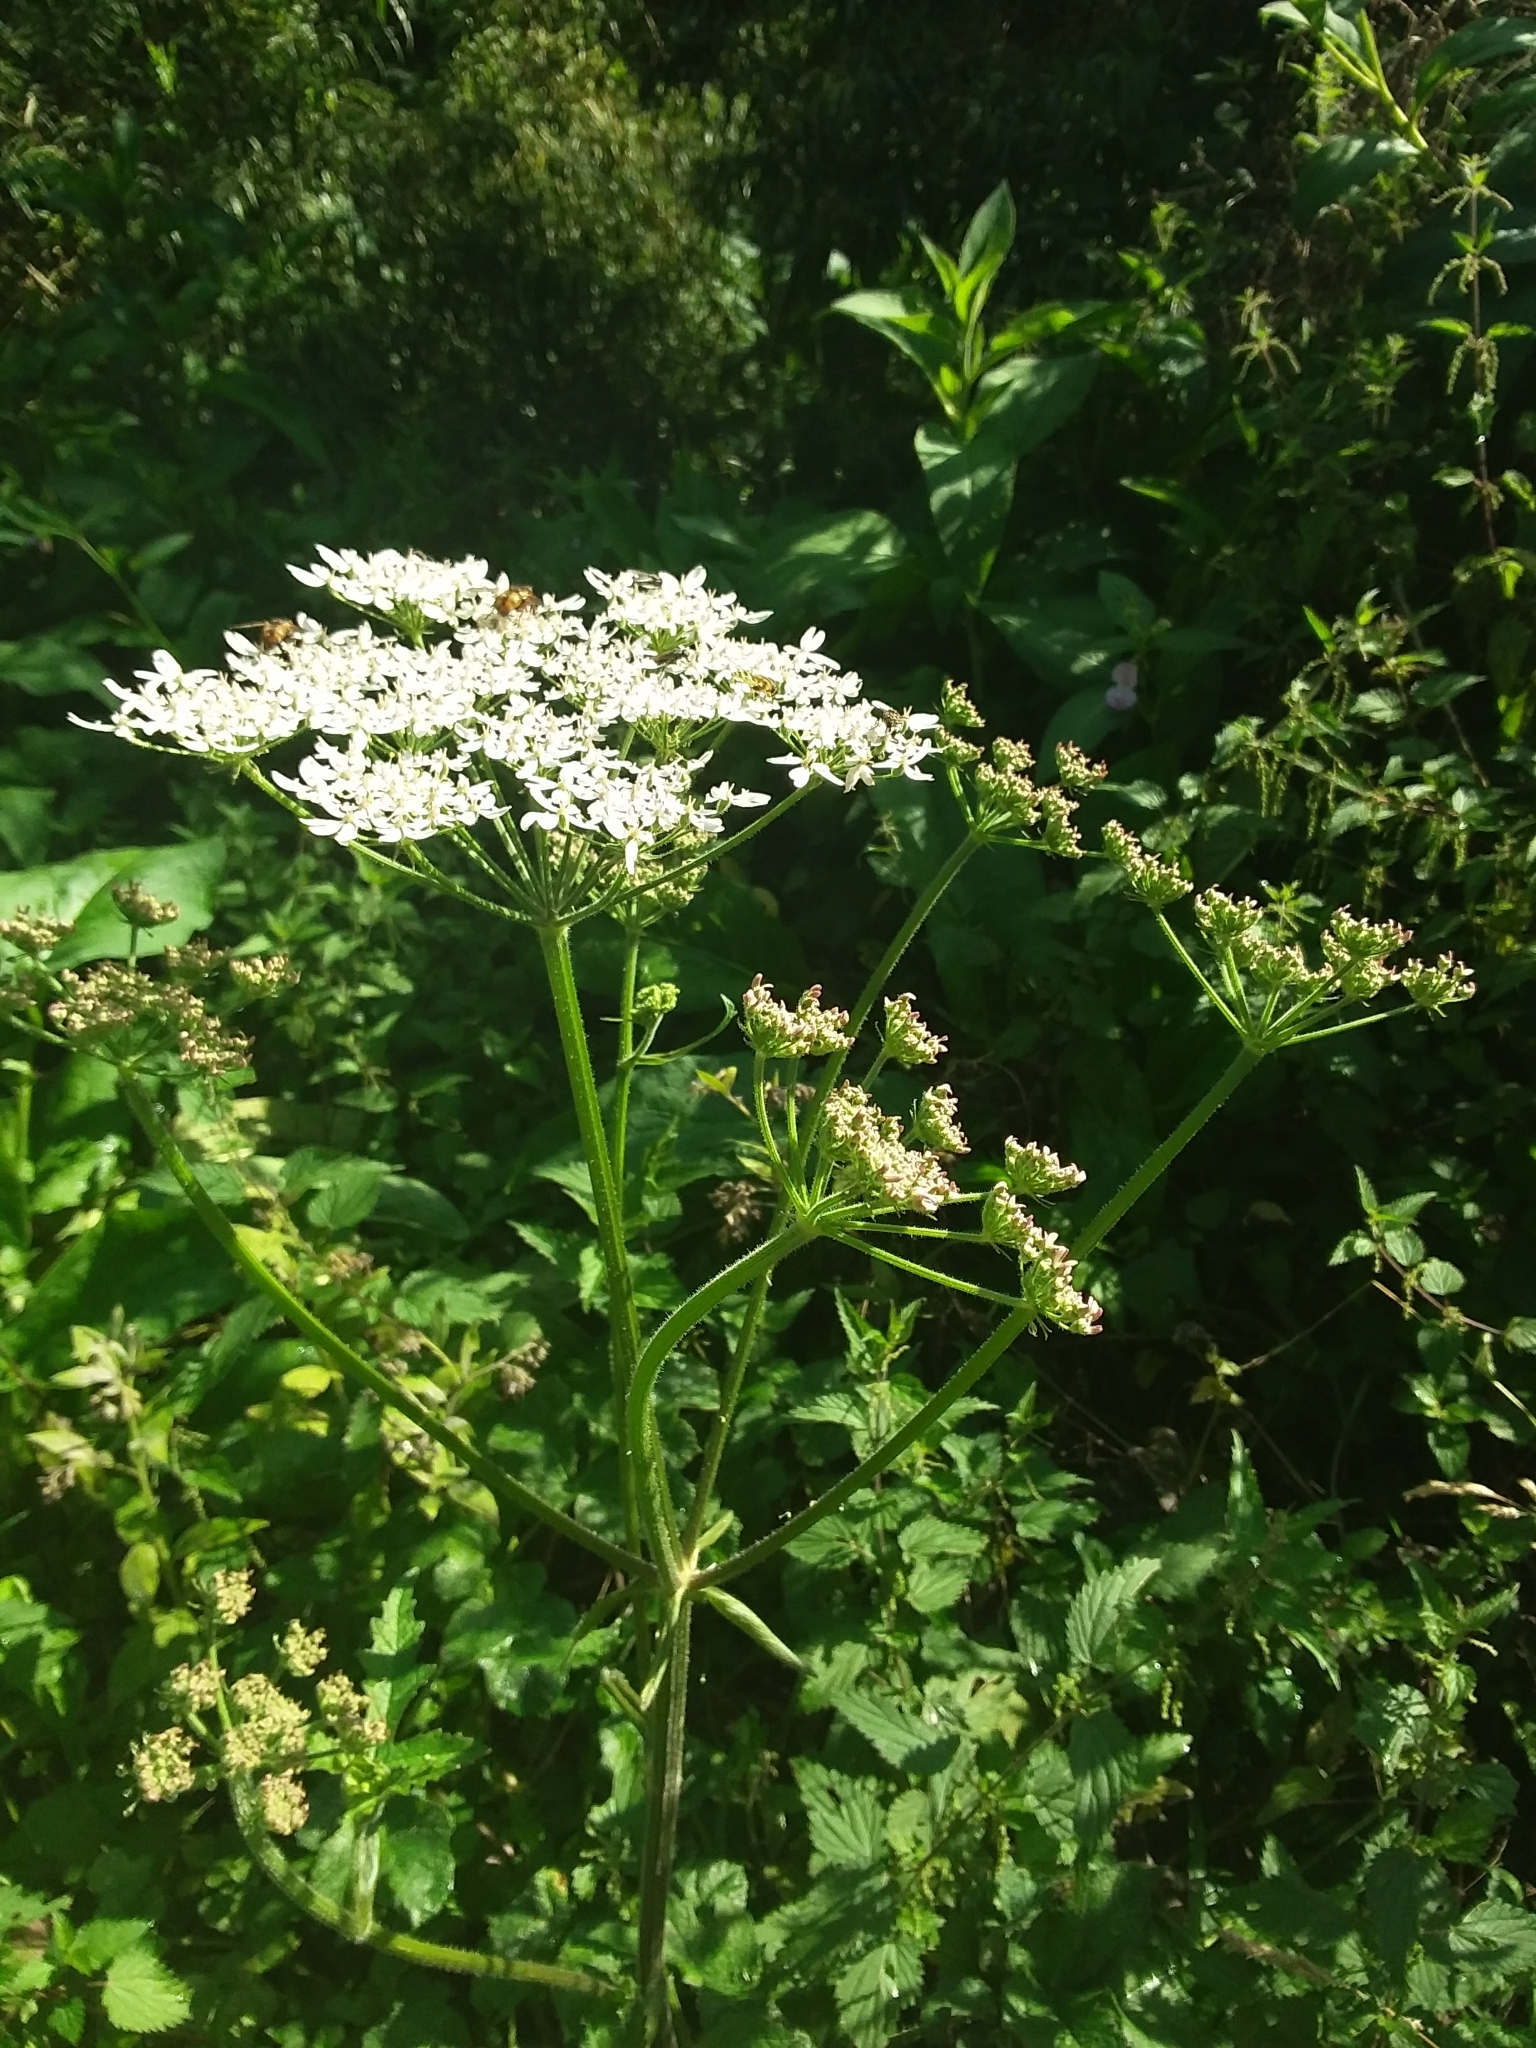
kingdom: Plantae
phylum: Tracheophyta
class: Magnoliopsida
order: Apiales
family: Apiaceae
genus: Heracleum
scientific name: Heracleum sphondylium
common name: Hogweed
